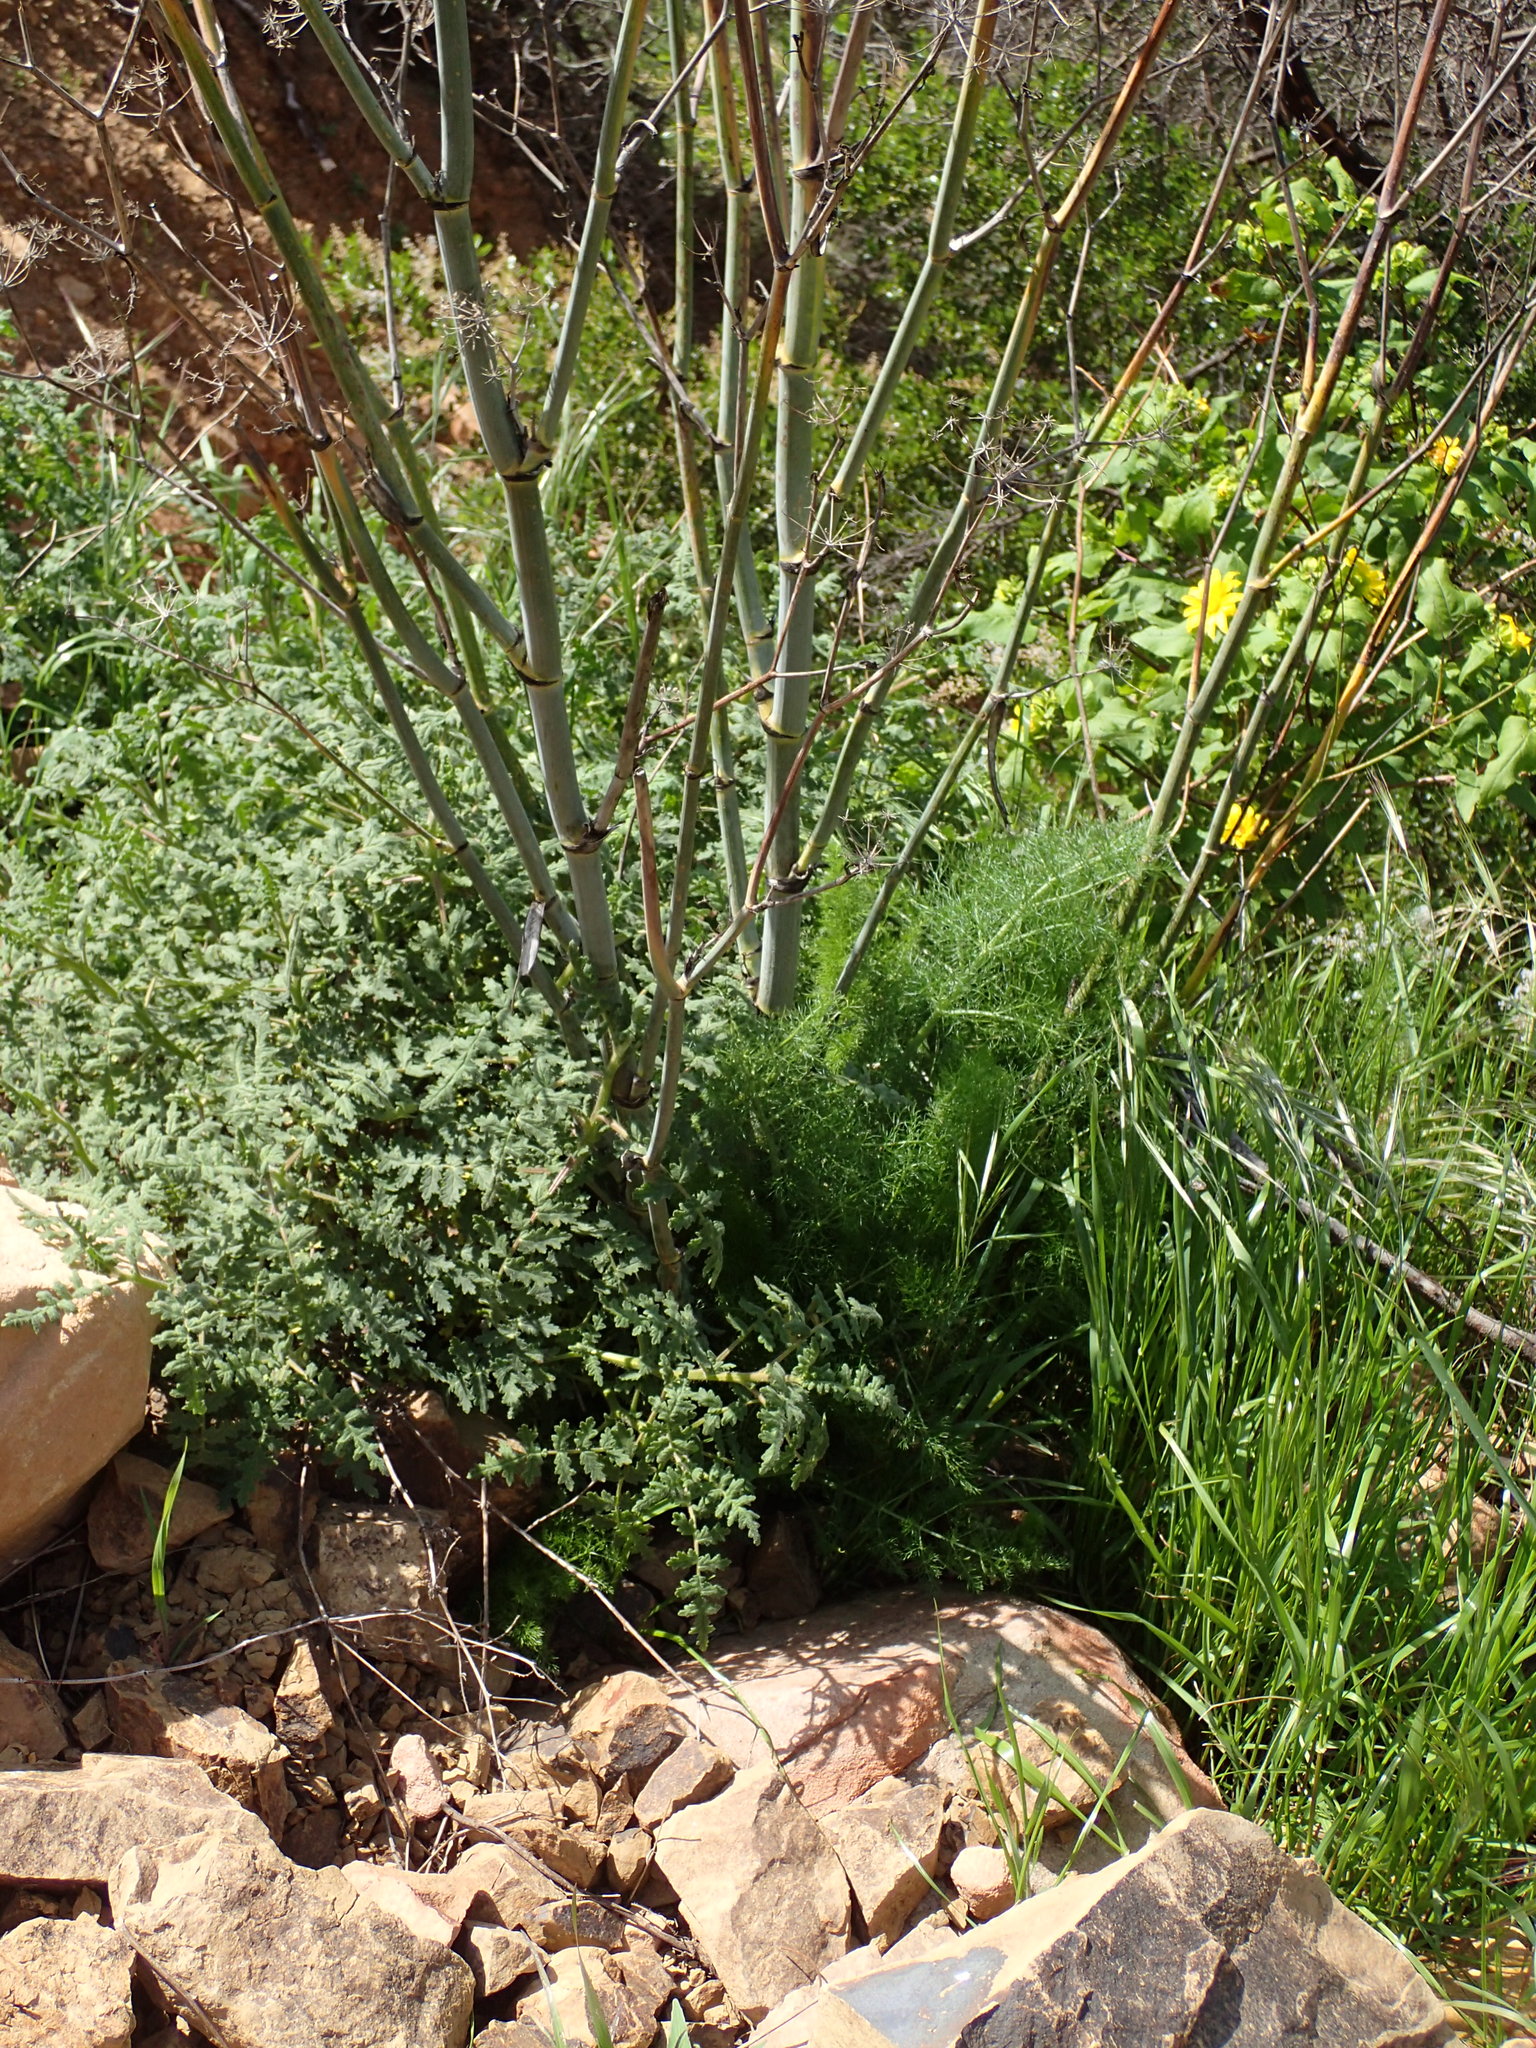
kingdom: Plantae
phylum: Tracheophyta
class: Magnoliopsida
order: Apiales
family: Apiaceae
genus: Foeniculum
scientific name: Foeniculum vulgare
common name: Fennel
